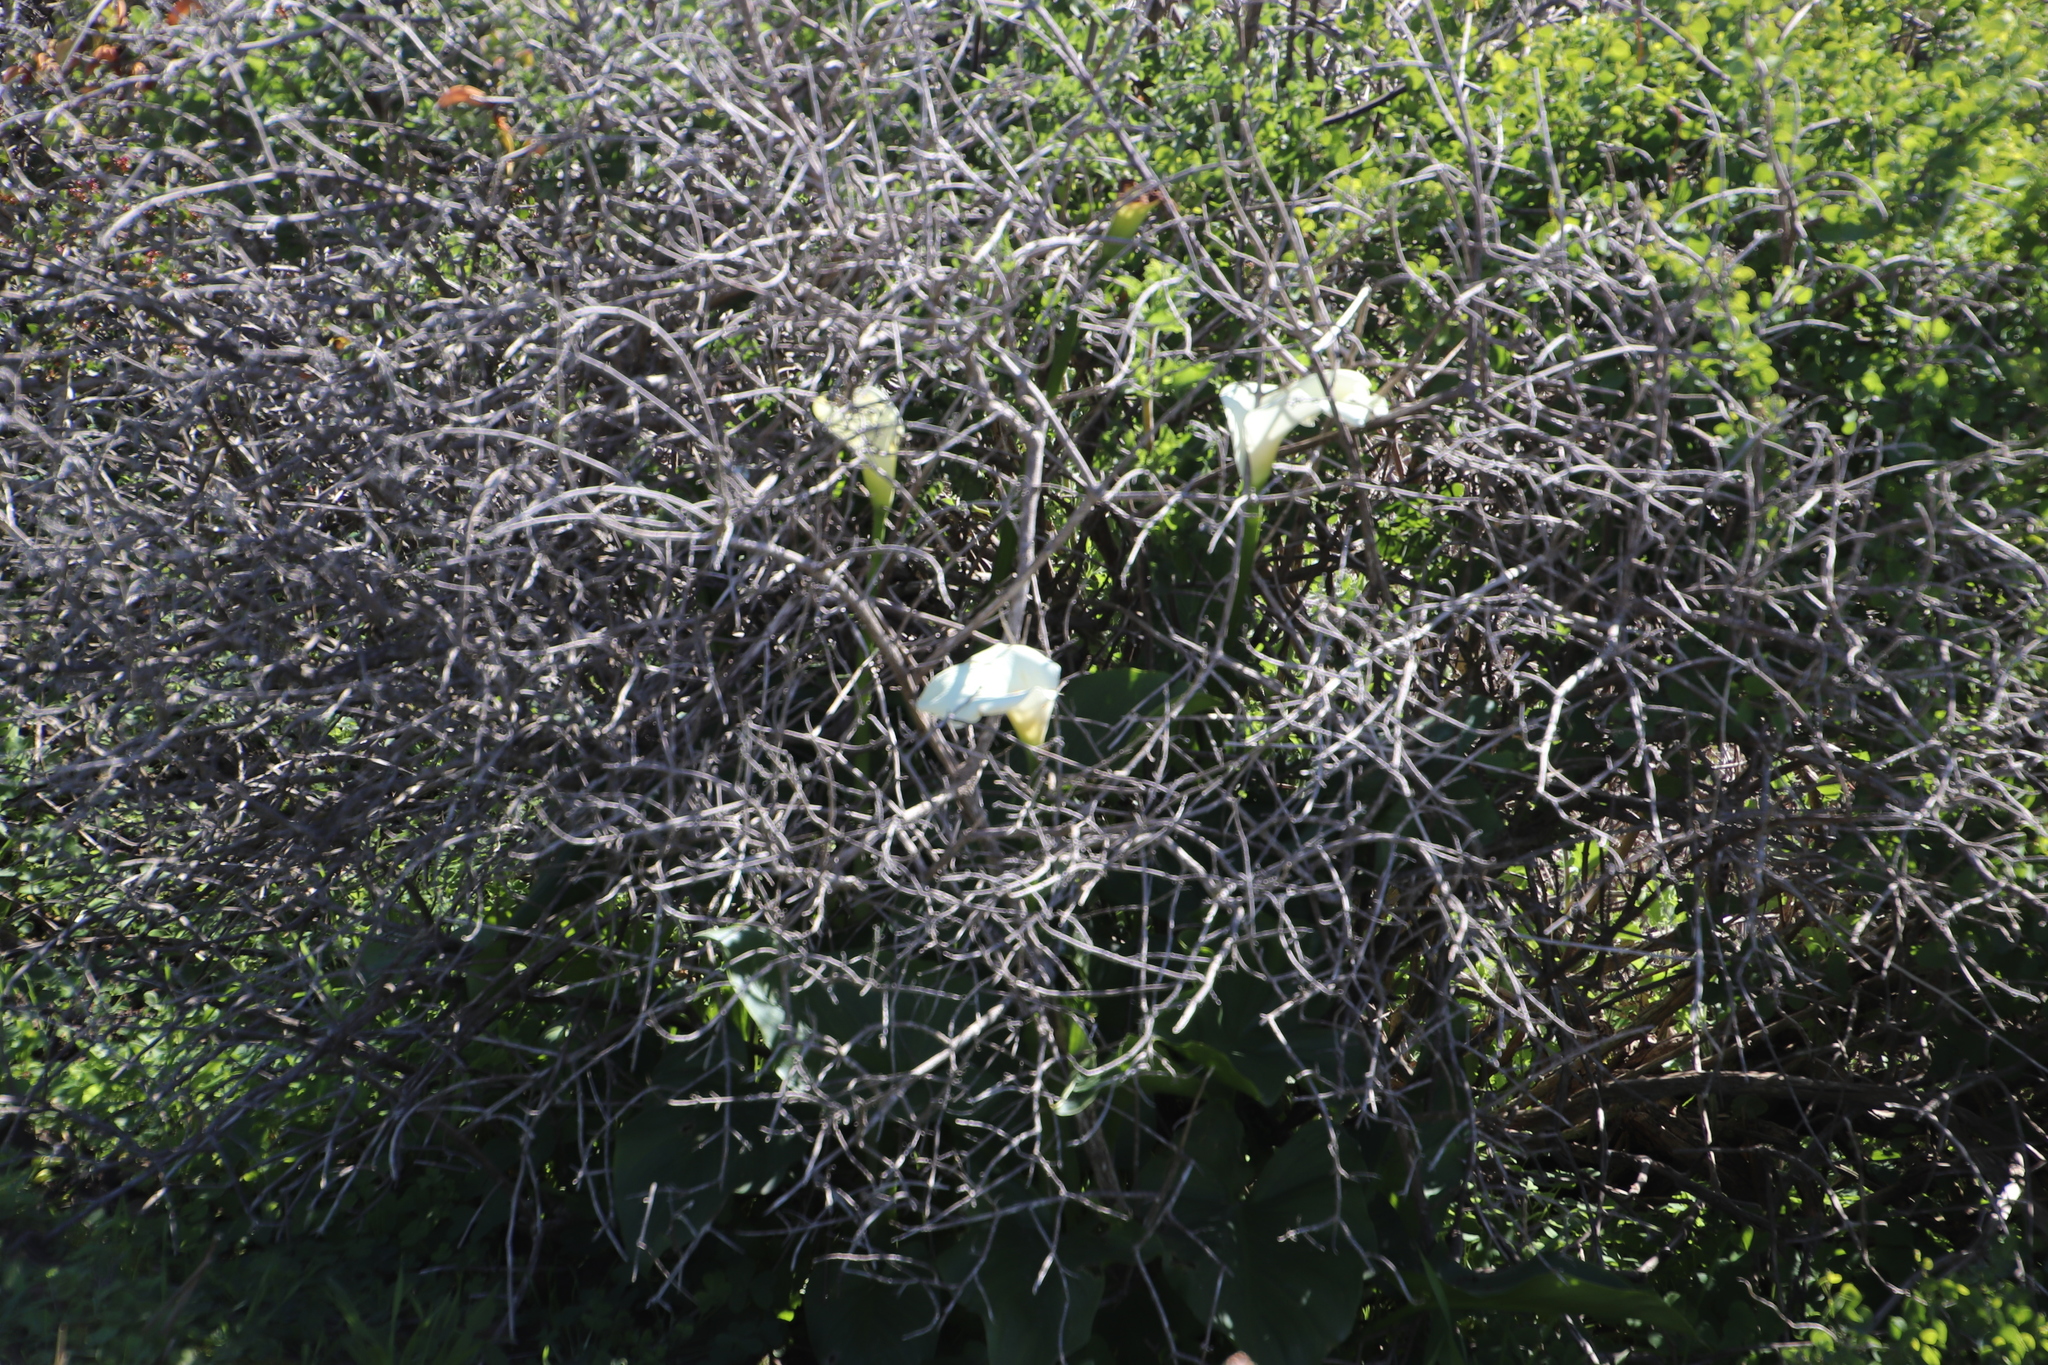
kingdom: Plantae
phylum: Tracheophyta
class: Liliopsida
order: Alismatales
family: Araceae
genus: Zantedeschia
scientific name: Zantedeschia aethiopica
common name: Altar-lily
